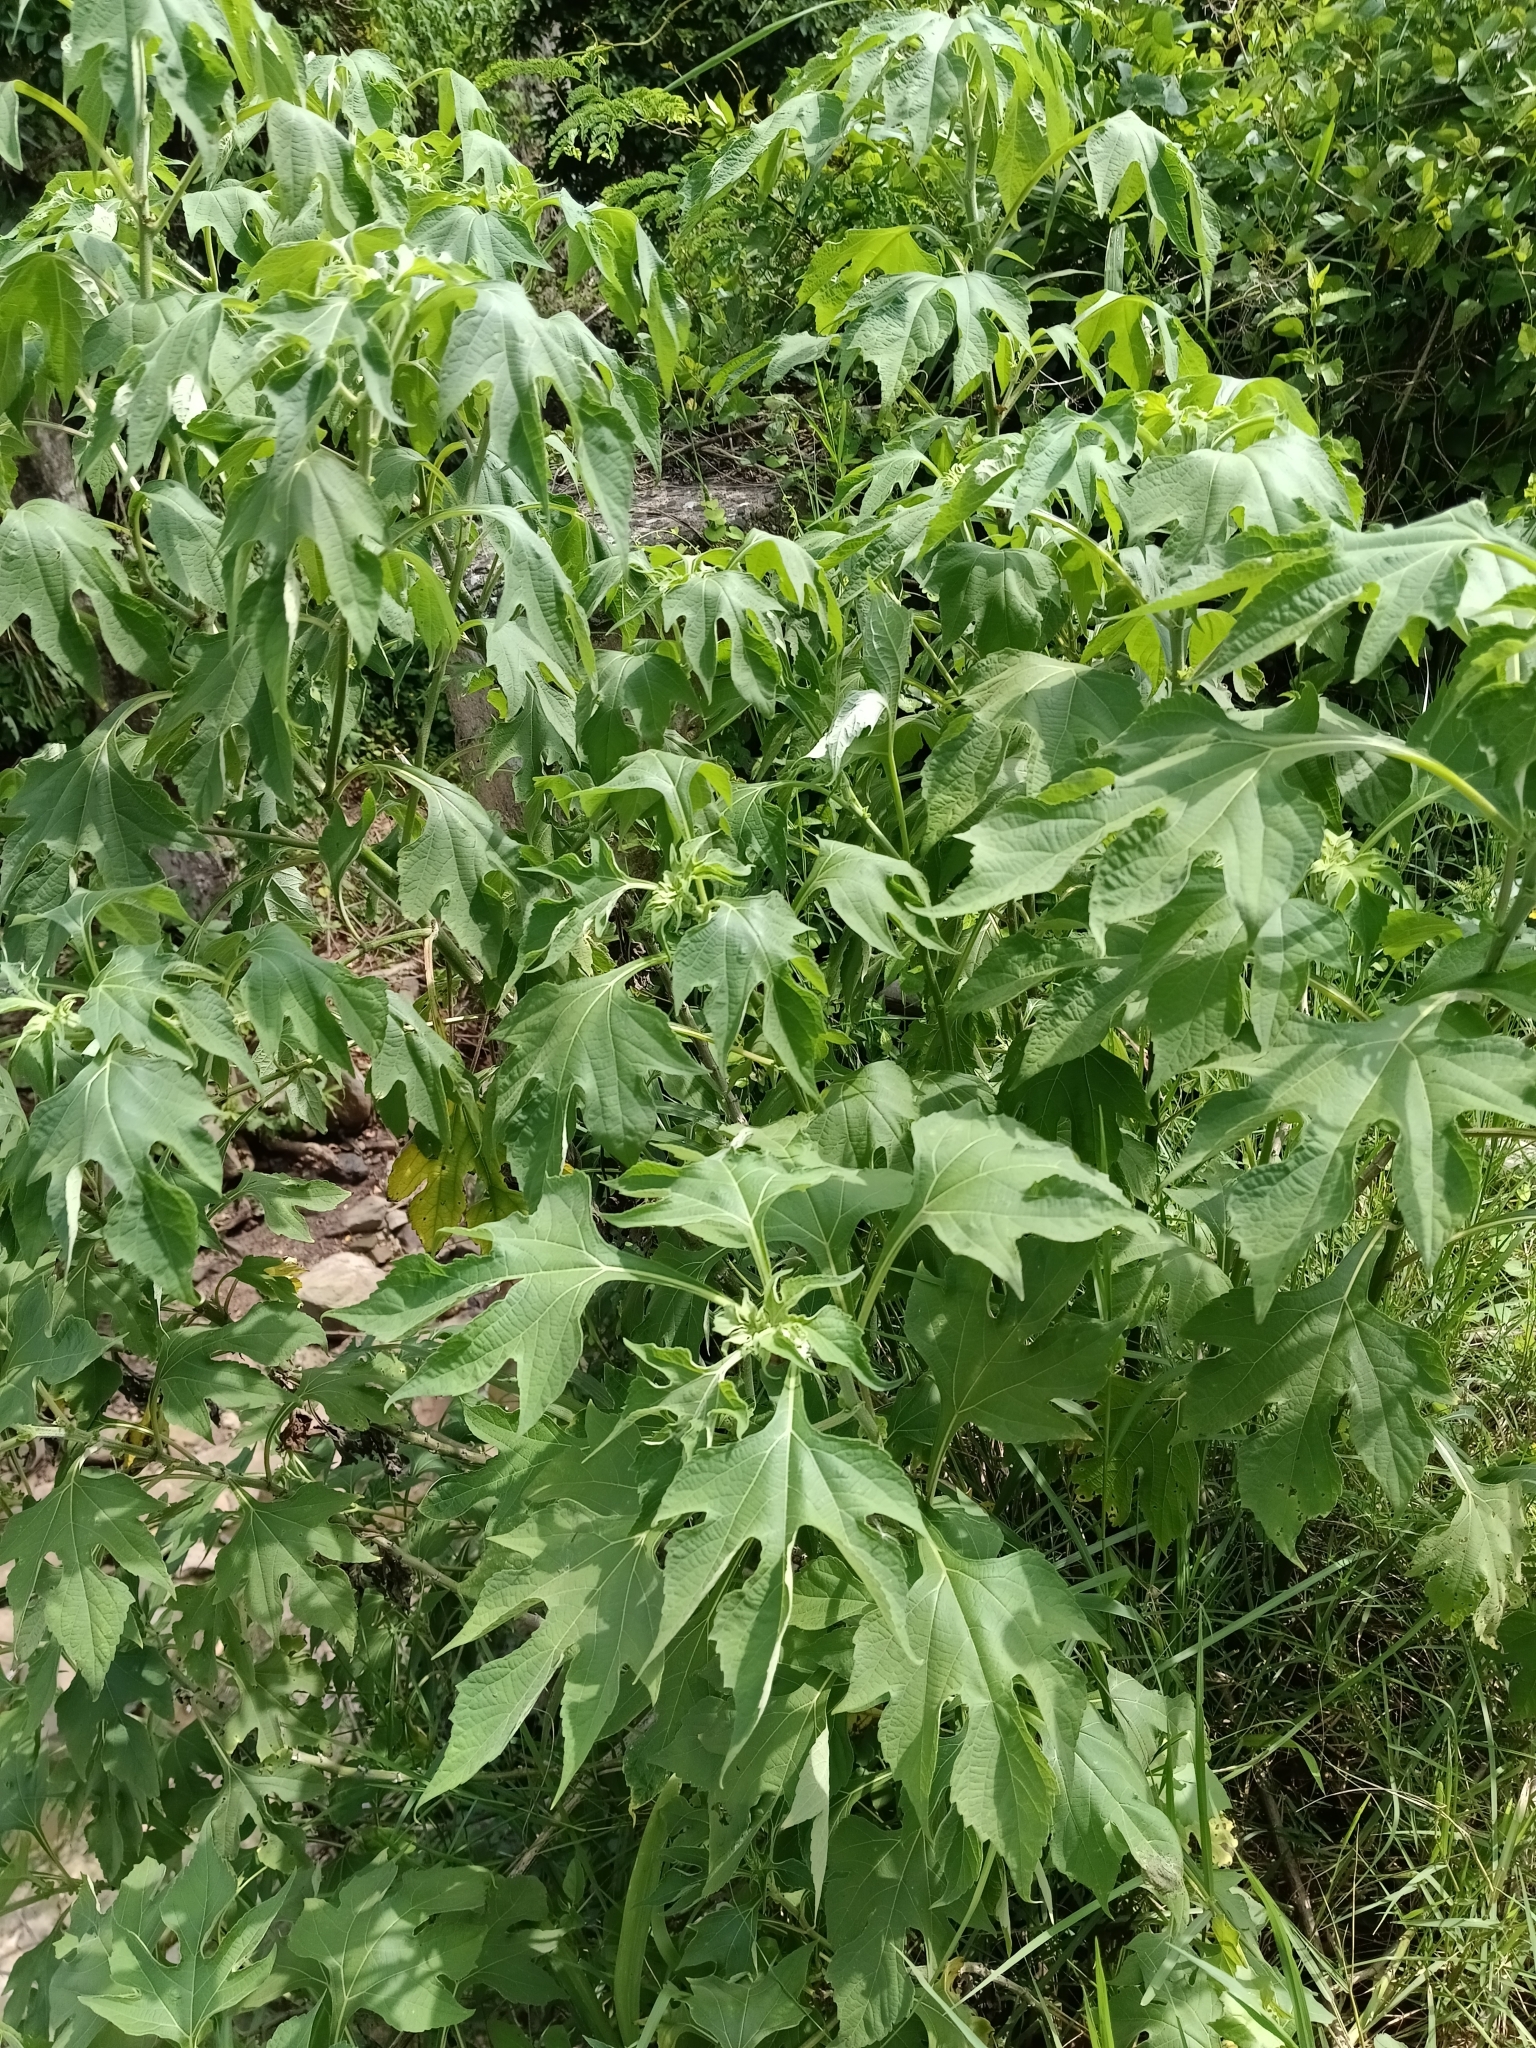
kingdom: Plantae
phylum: Tracheophyta
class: Magnoliopsida
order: Asterales
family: Asteraceae
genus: Tithonia
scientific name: Tithonia diversifolia
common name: Tree marigold
